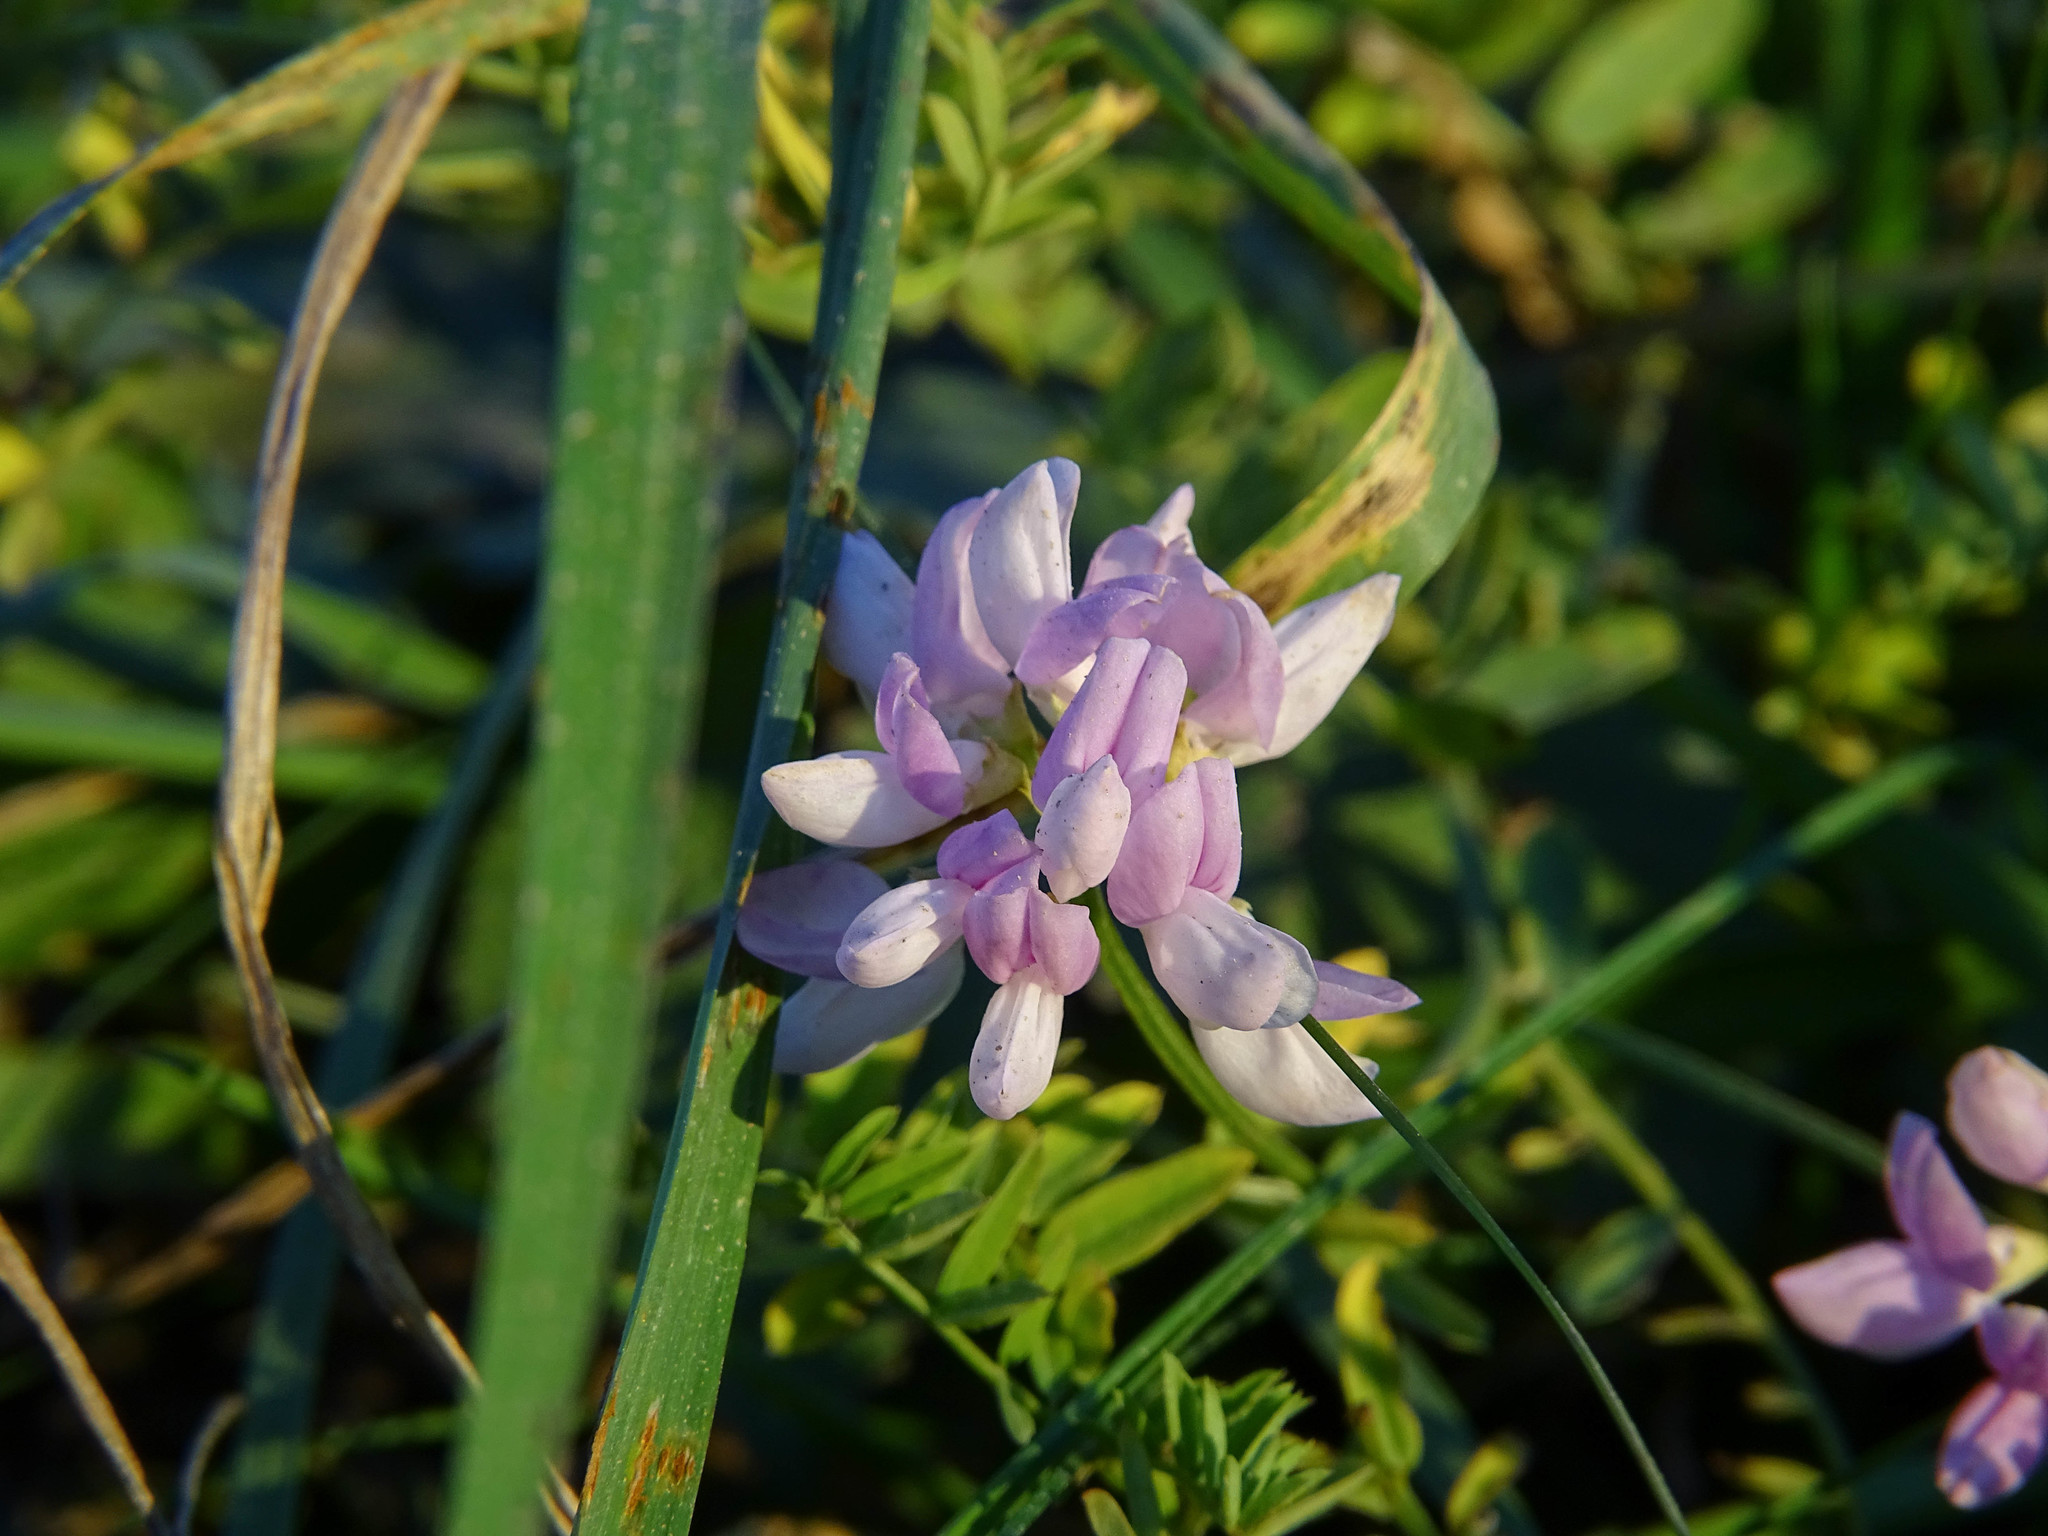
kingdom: Plantae
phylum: Tracheophyta
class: Magnoliopsida
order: Fabales
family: Fabaceae
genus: Coronilla
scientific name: Coronilla varia
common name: Crownvetch
